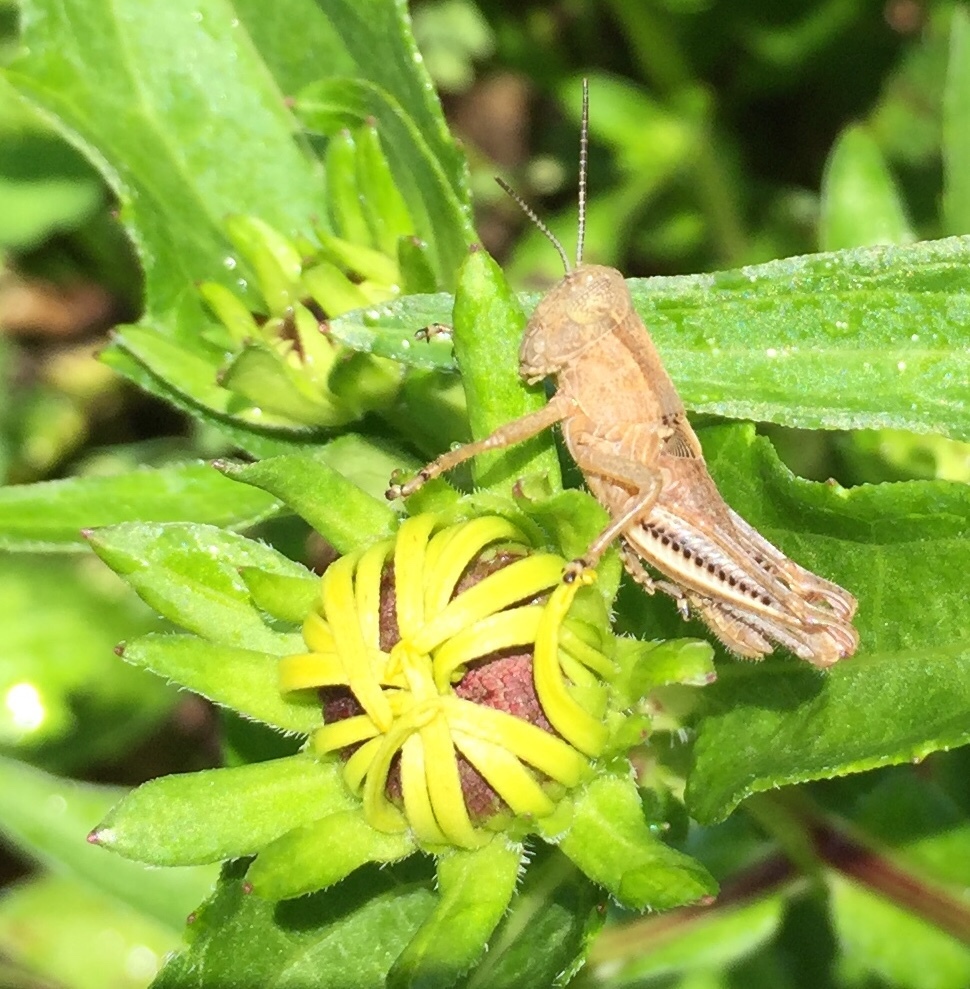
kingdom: Animalia
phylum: Arthropoda
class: Insecta
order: Orthoptera
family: Acrididae
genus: Melanoplus
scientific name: Melanoplus differentialis
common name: Differential grasshopper
